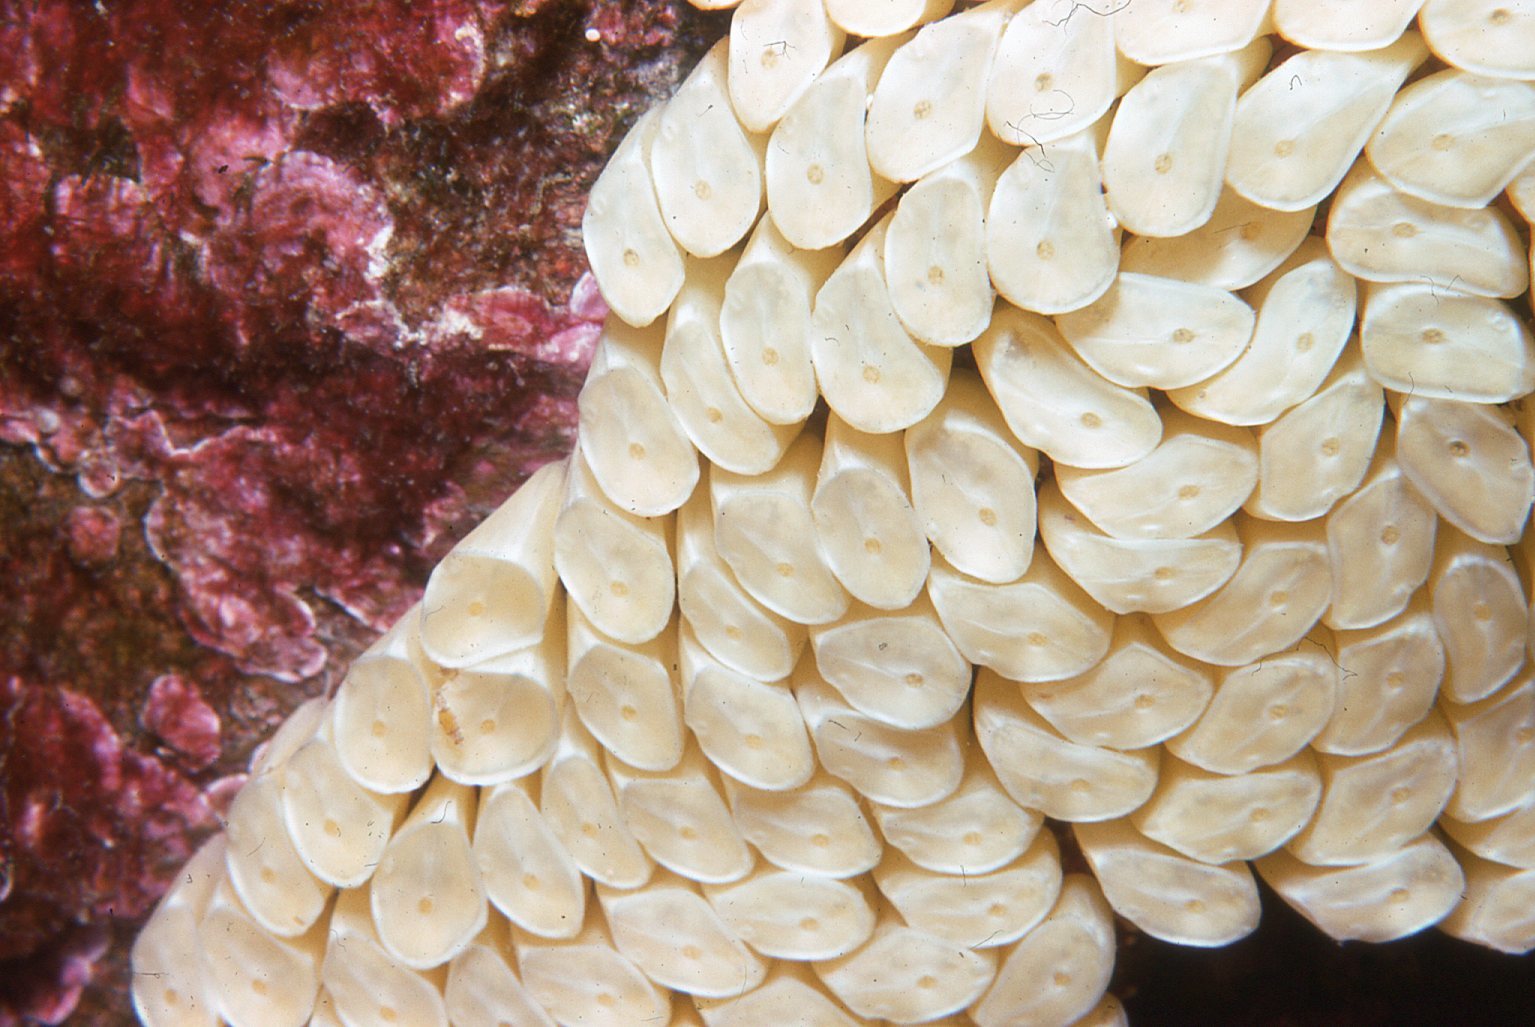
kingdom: Animalia
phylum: Mollusca
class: Gastropoda
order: Neogastropoda
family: Muricidae
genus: Dicathais
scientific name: Dicathais orbita
